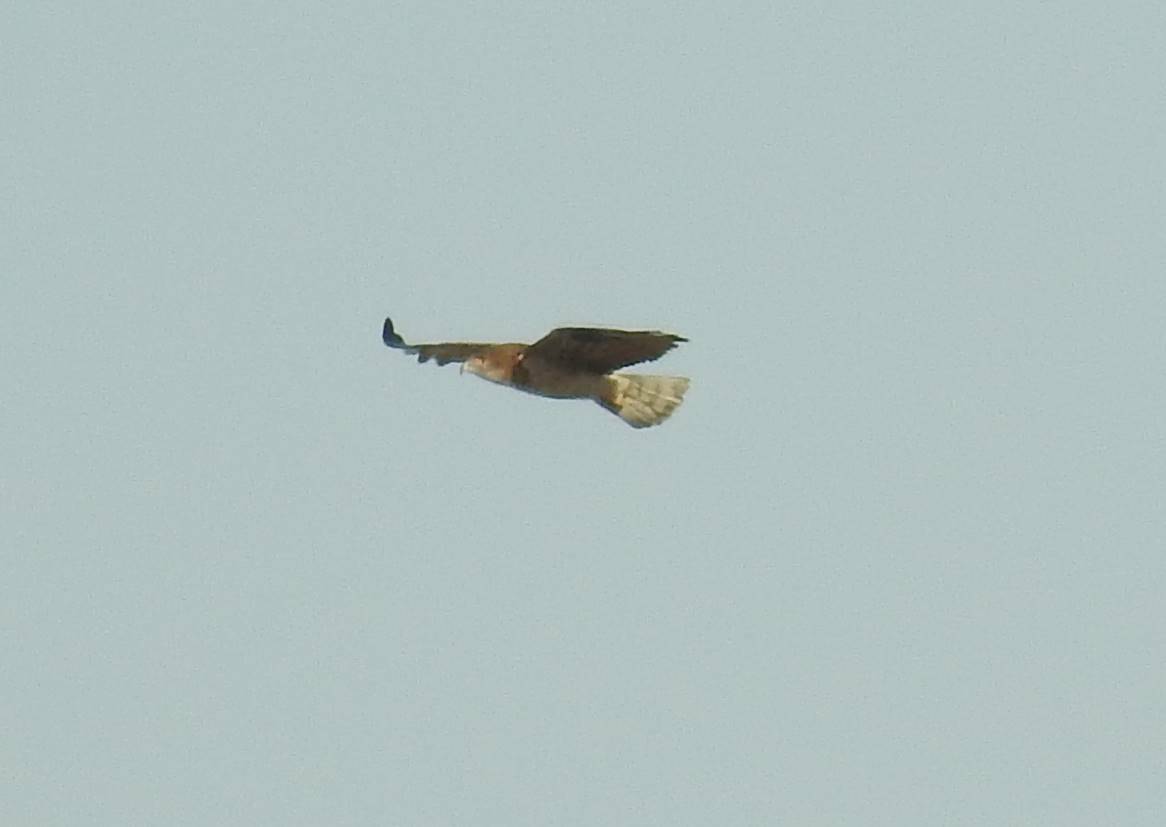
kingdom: Animalia
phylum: Chordata
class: Aves
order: Accipitriformes
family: Accipitridae
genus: Circaetus
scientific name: Circaetus gallicus
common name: Short-toed snake eagle
